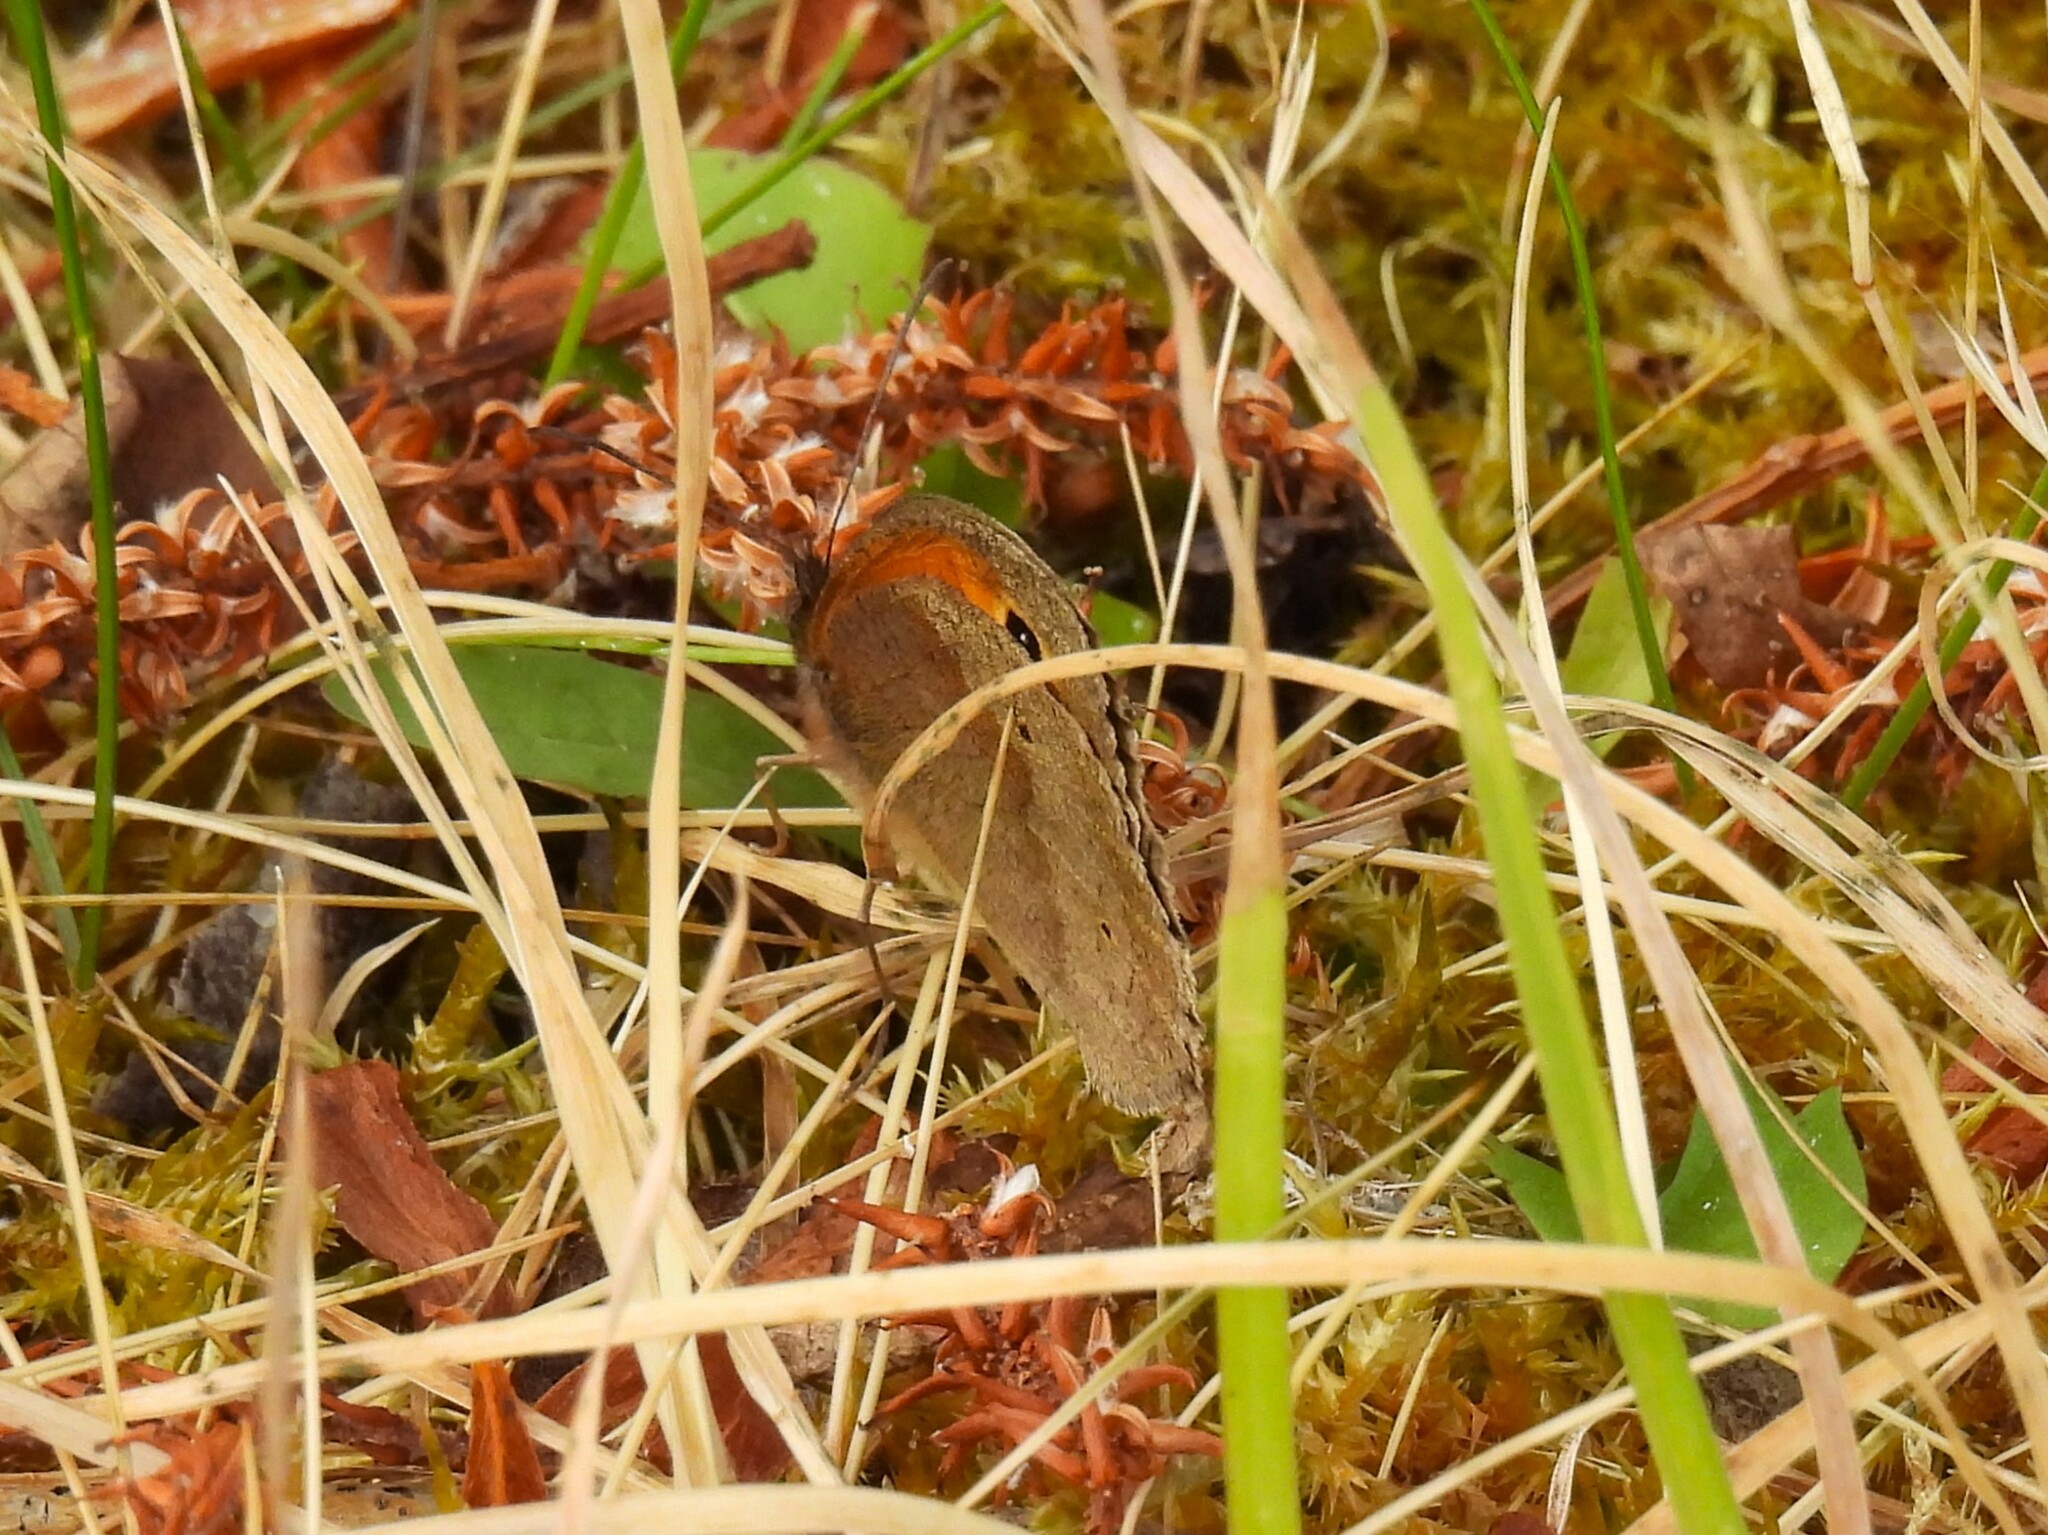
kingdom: Animalia
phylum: Arthropoda
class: Insecta
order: Lepidoptera
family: Nymphalidae
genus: Maniola
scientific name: Maniola jurtina
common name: Meadow brown
